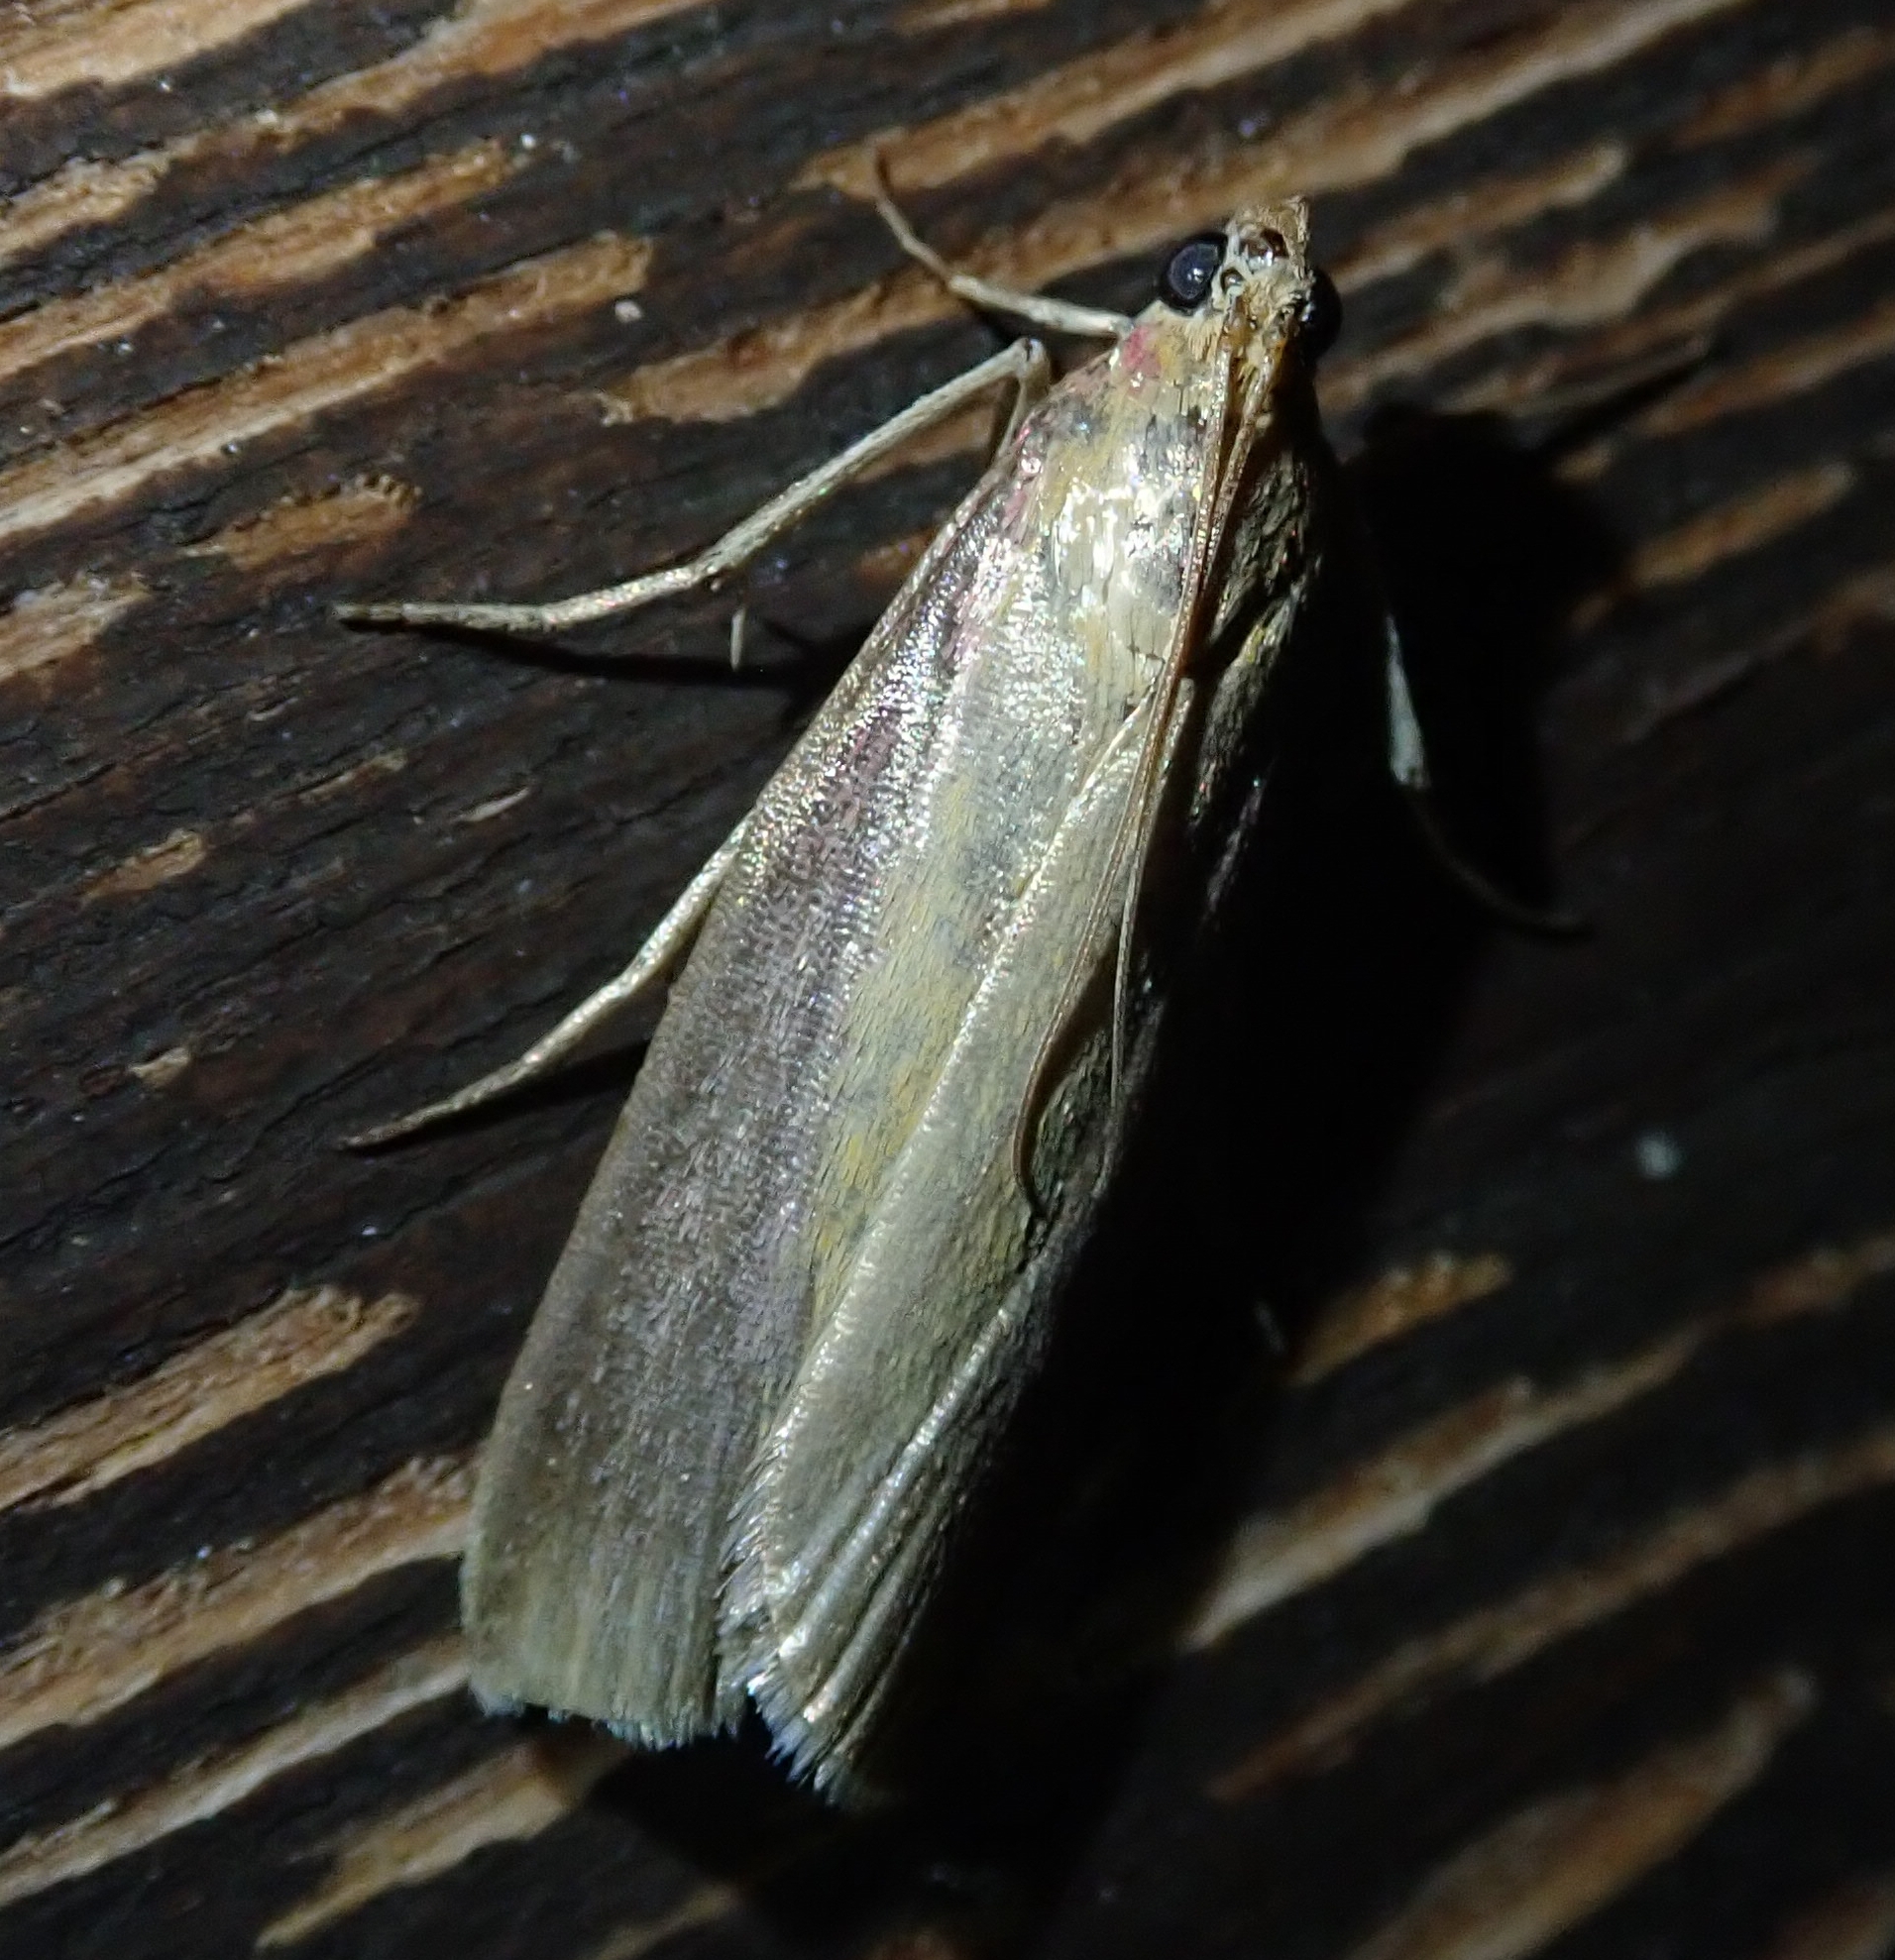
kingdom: Animalia
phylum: Arthropoda
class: Insecta
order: Lepidoptera
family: Pyralidae
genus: Oncocera
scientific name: Oncocera semirubella
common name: Rosy-striped knot-horn
